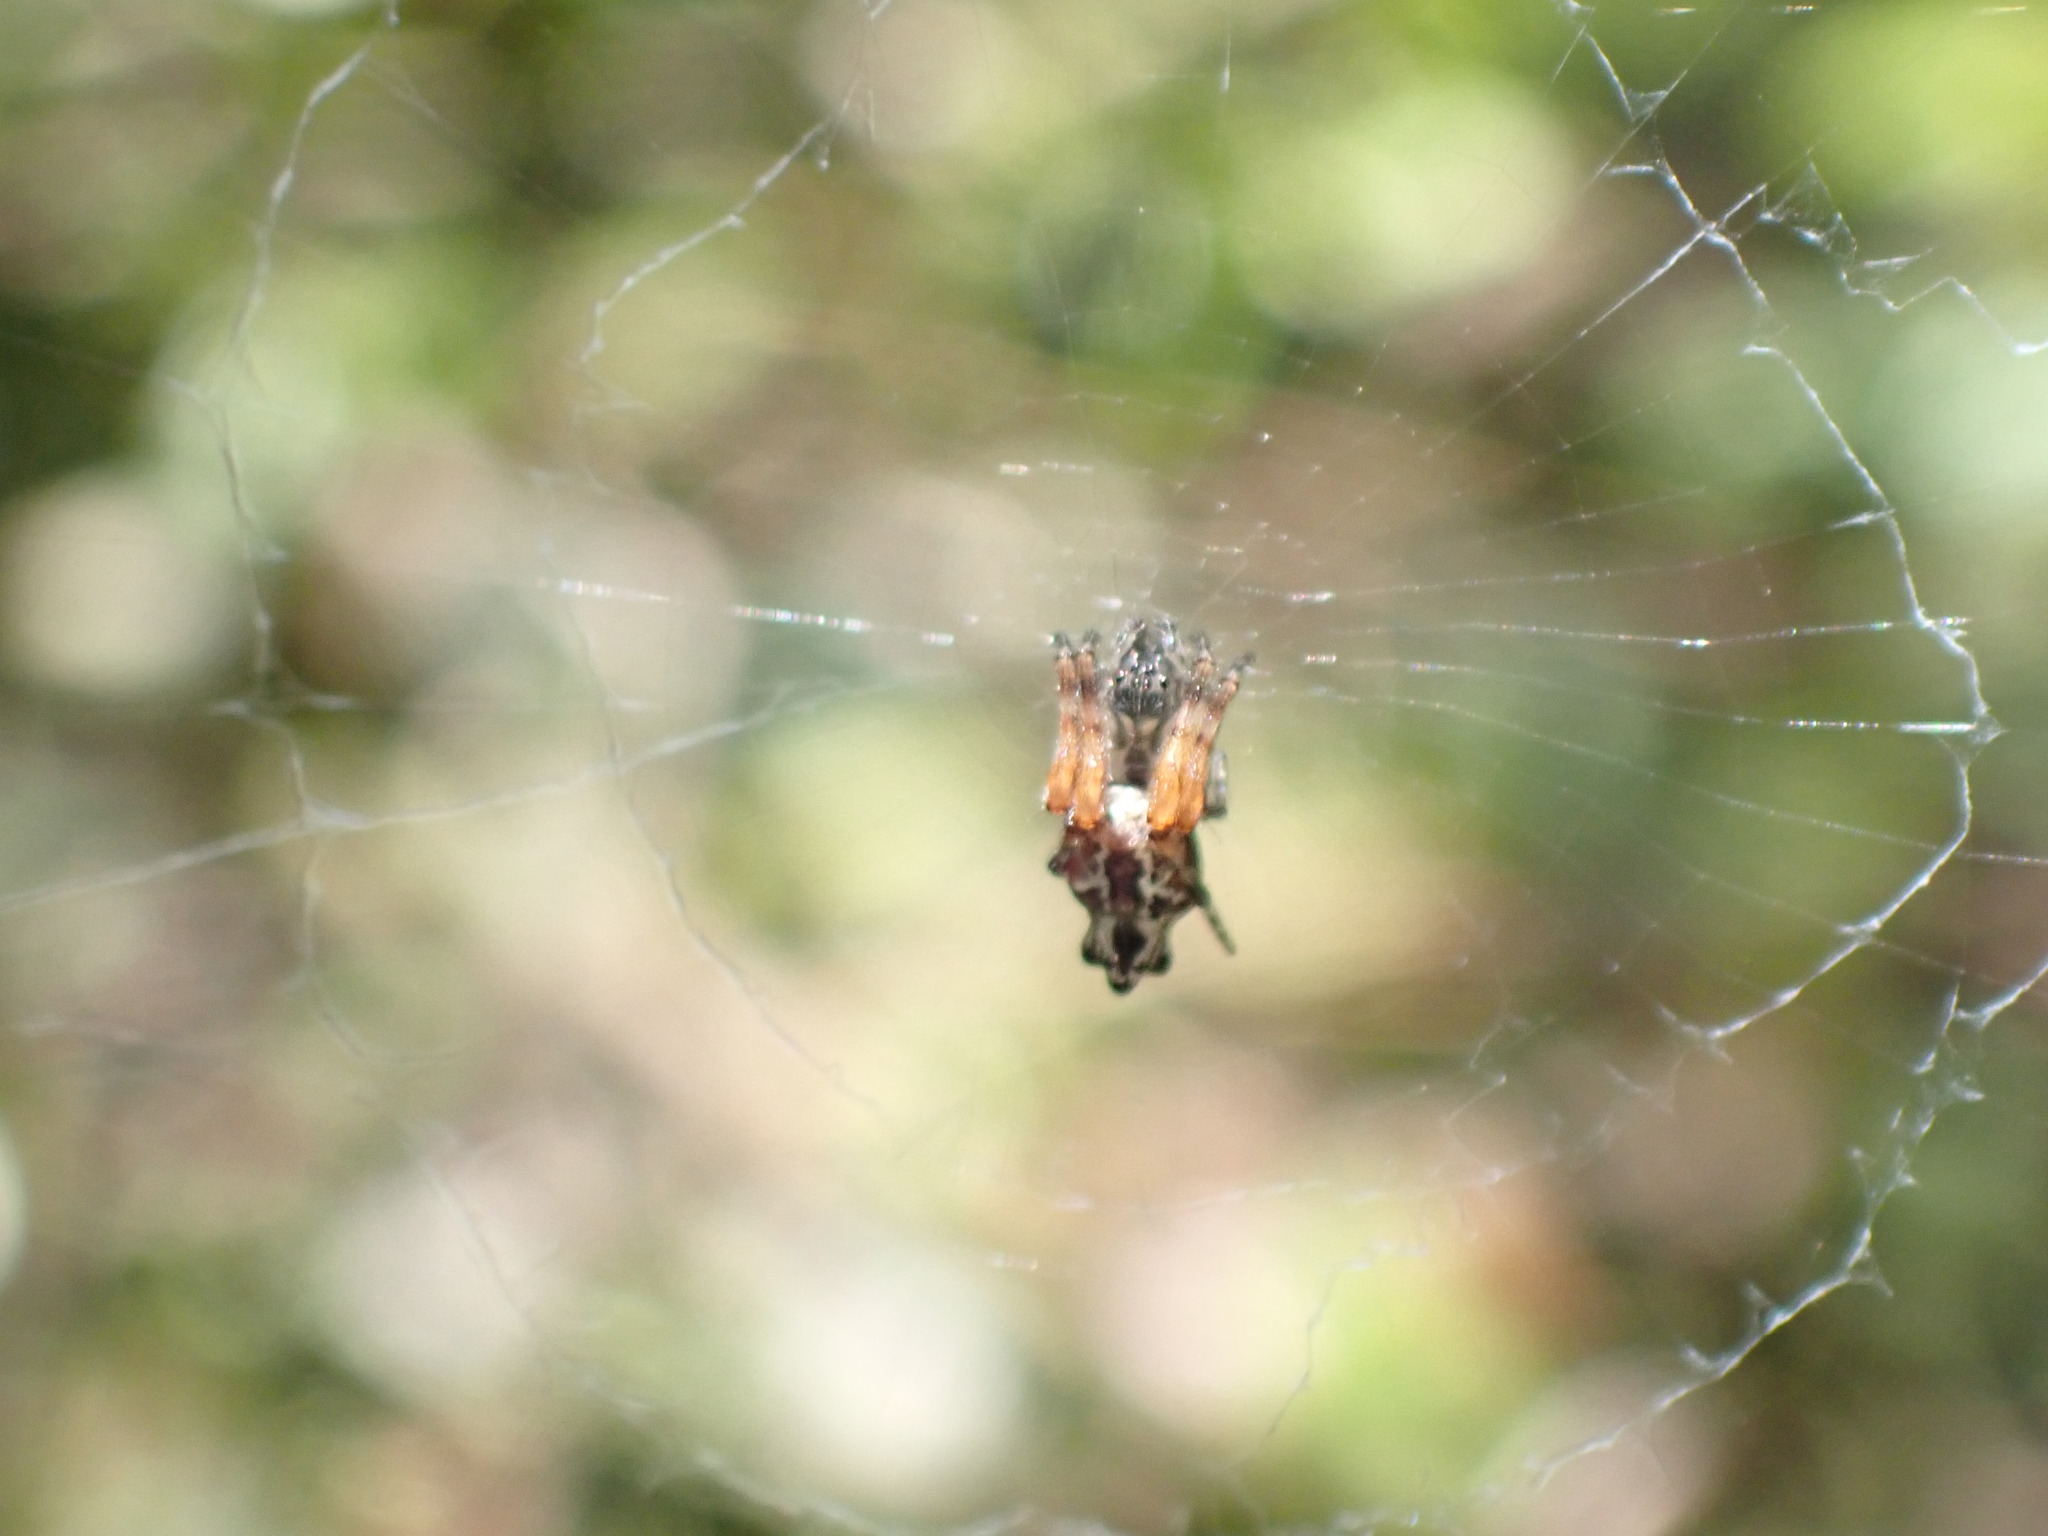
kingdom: Animalia
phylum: Arthropoda
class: Arachnida
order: Araneae
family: Araneidae
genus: Cyclosa
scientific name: Cyclosa insulana
